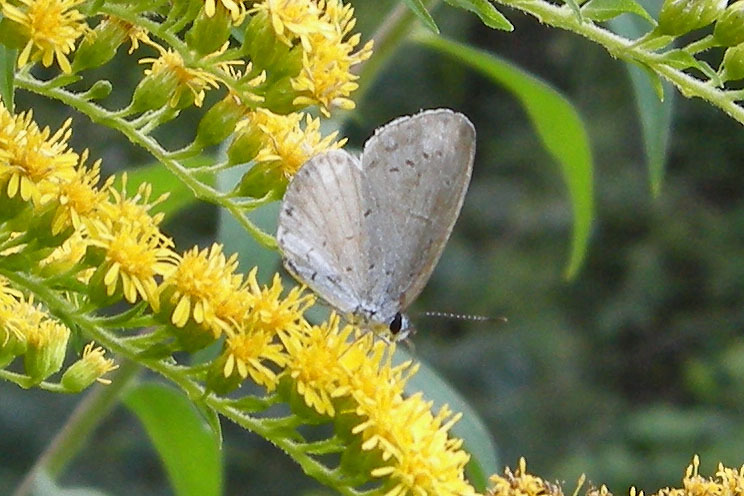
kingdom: Animalia
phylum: Arthropoda
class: Insecta
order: Lepidoptera
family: Lycaenidae
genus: Cyaniris
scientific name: Cyaniris neglecta
